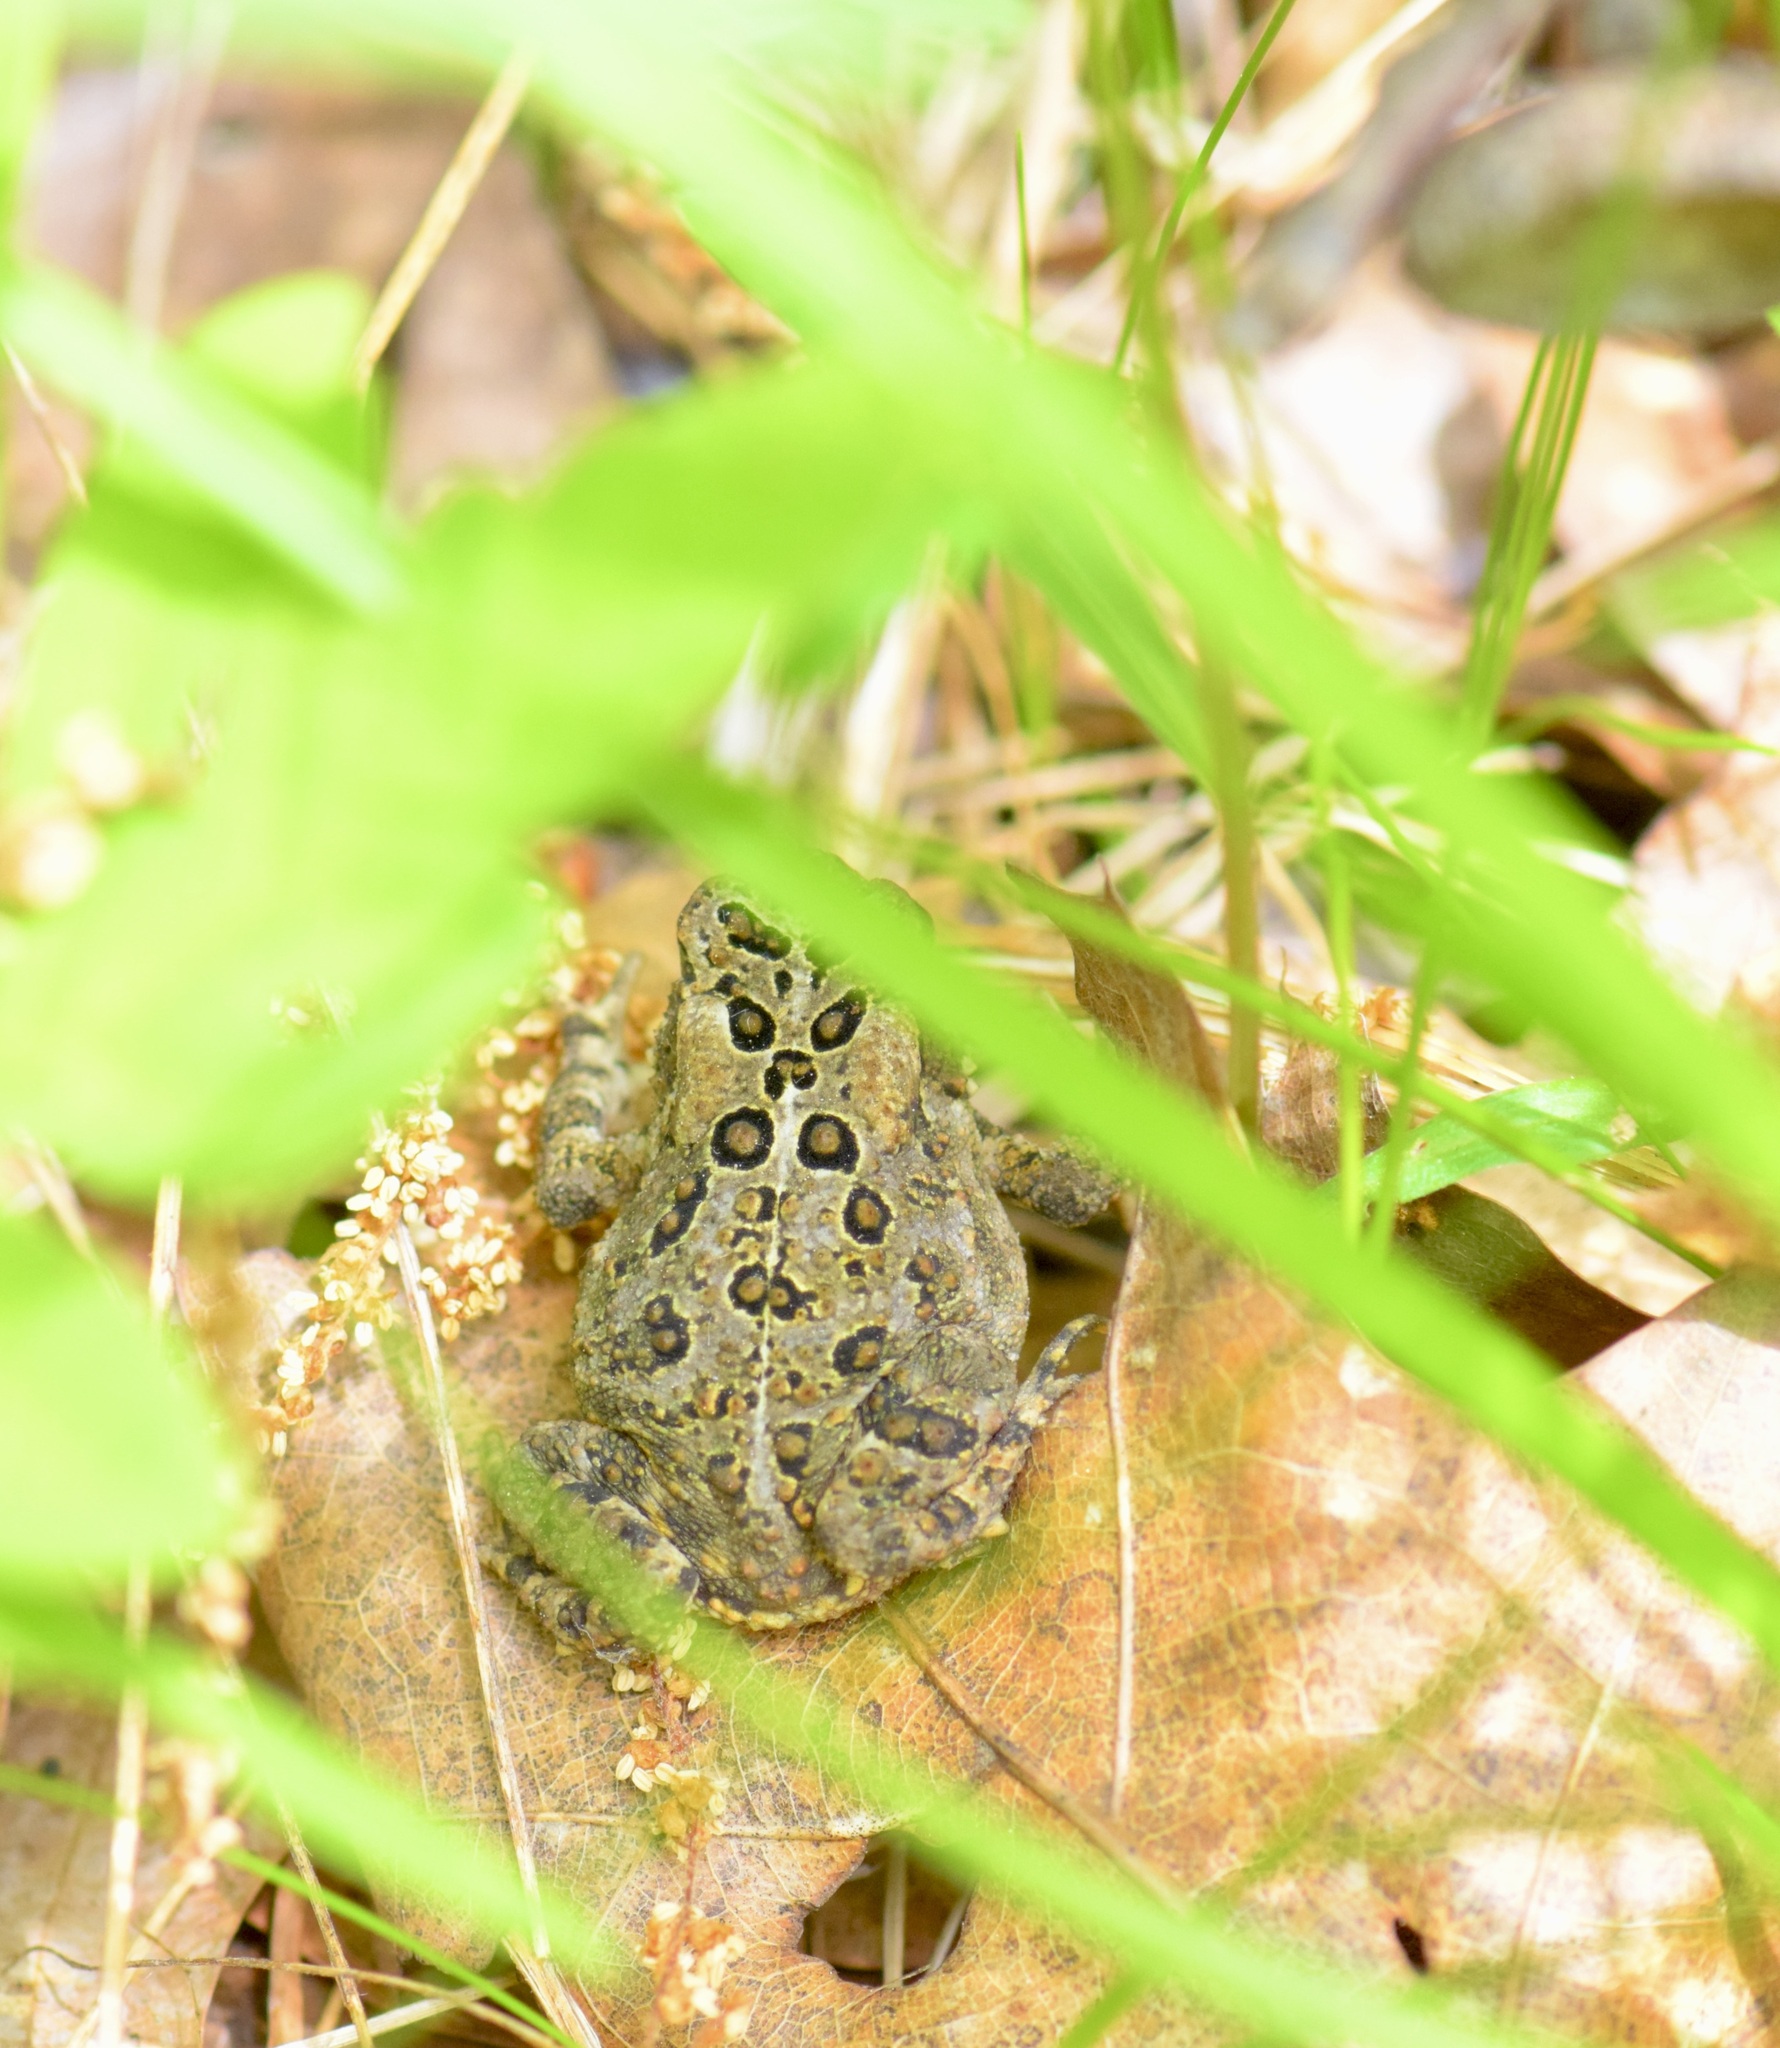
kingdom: Animalia
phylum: Chordata
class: Amphibia
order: Anura
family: Bufonidae
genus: Anaxyrus
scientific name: Anaxyrus americanus
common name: American toad
